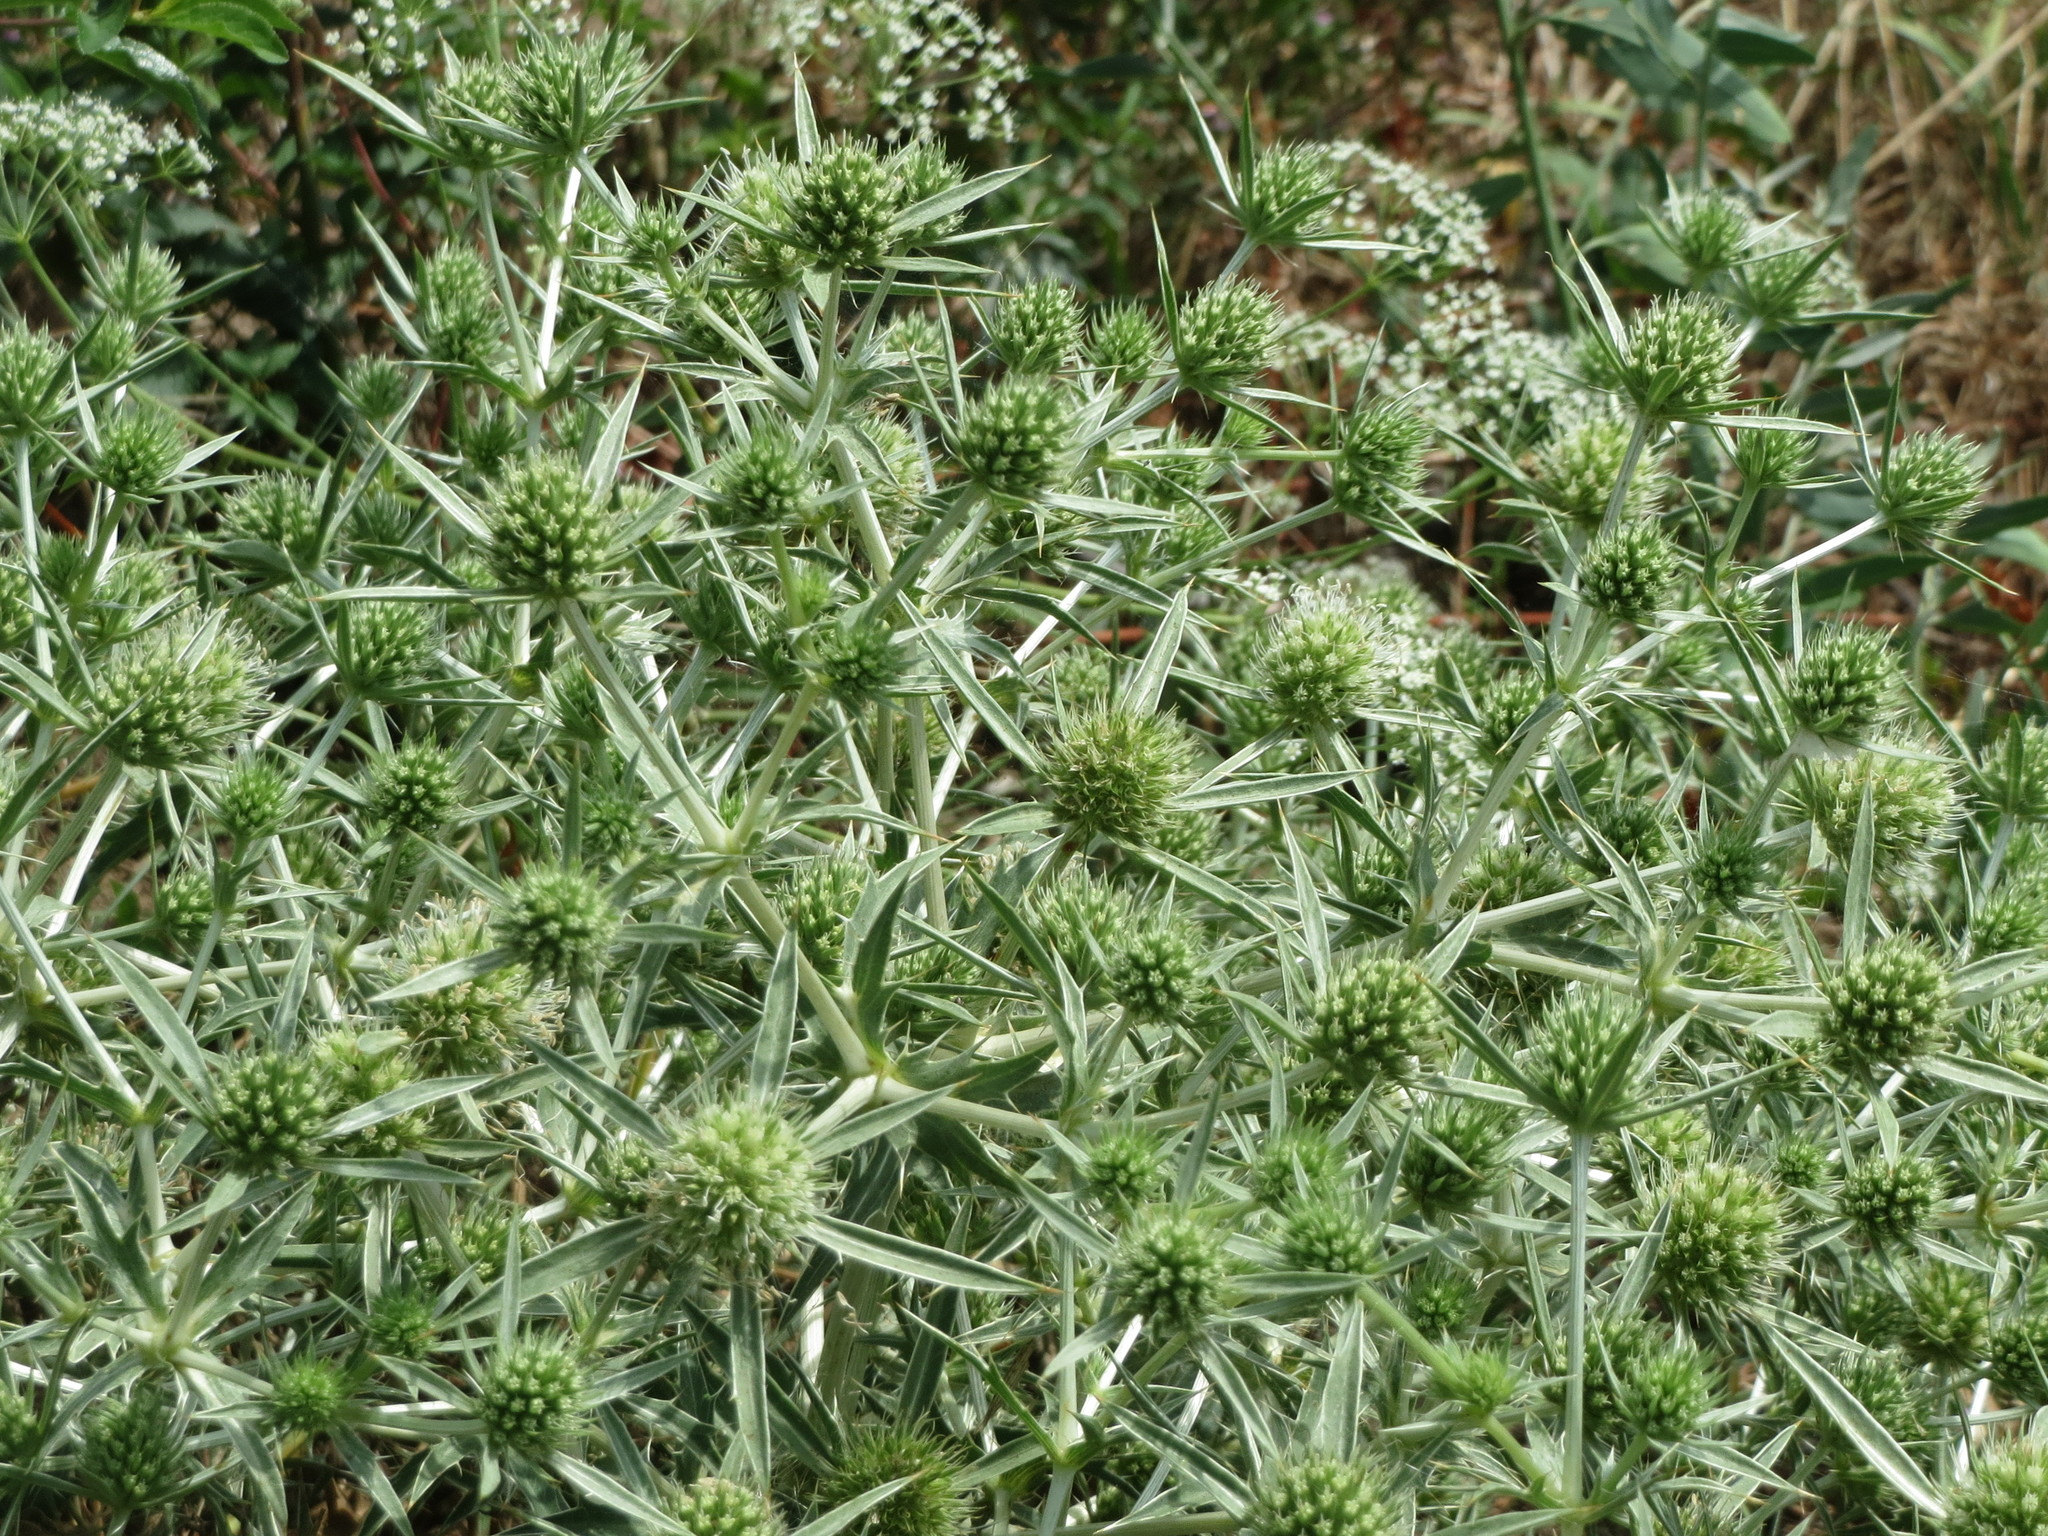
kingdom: Plantae
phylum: Tracheophyta
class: Magnoliopsida
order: Apiales
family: Apiaceae
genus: Eryngium
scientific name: Eryngium campestre
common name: Field eryngo
